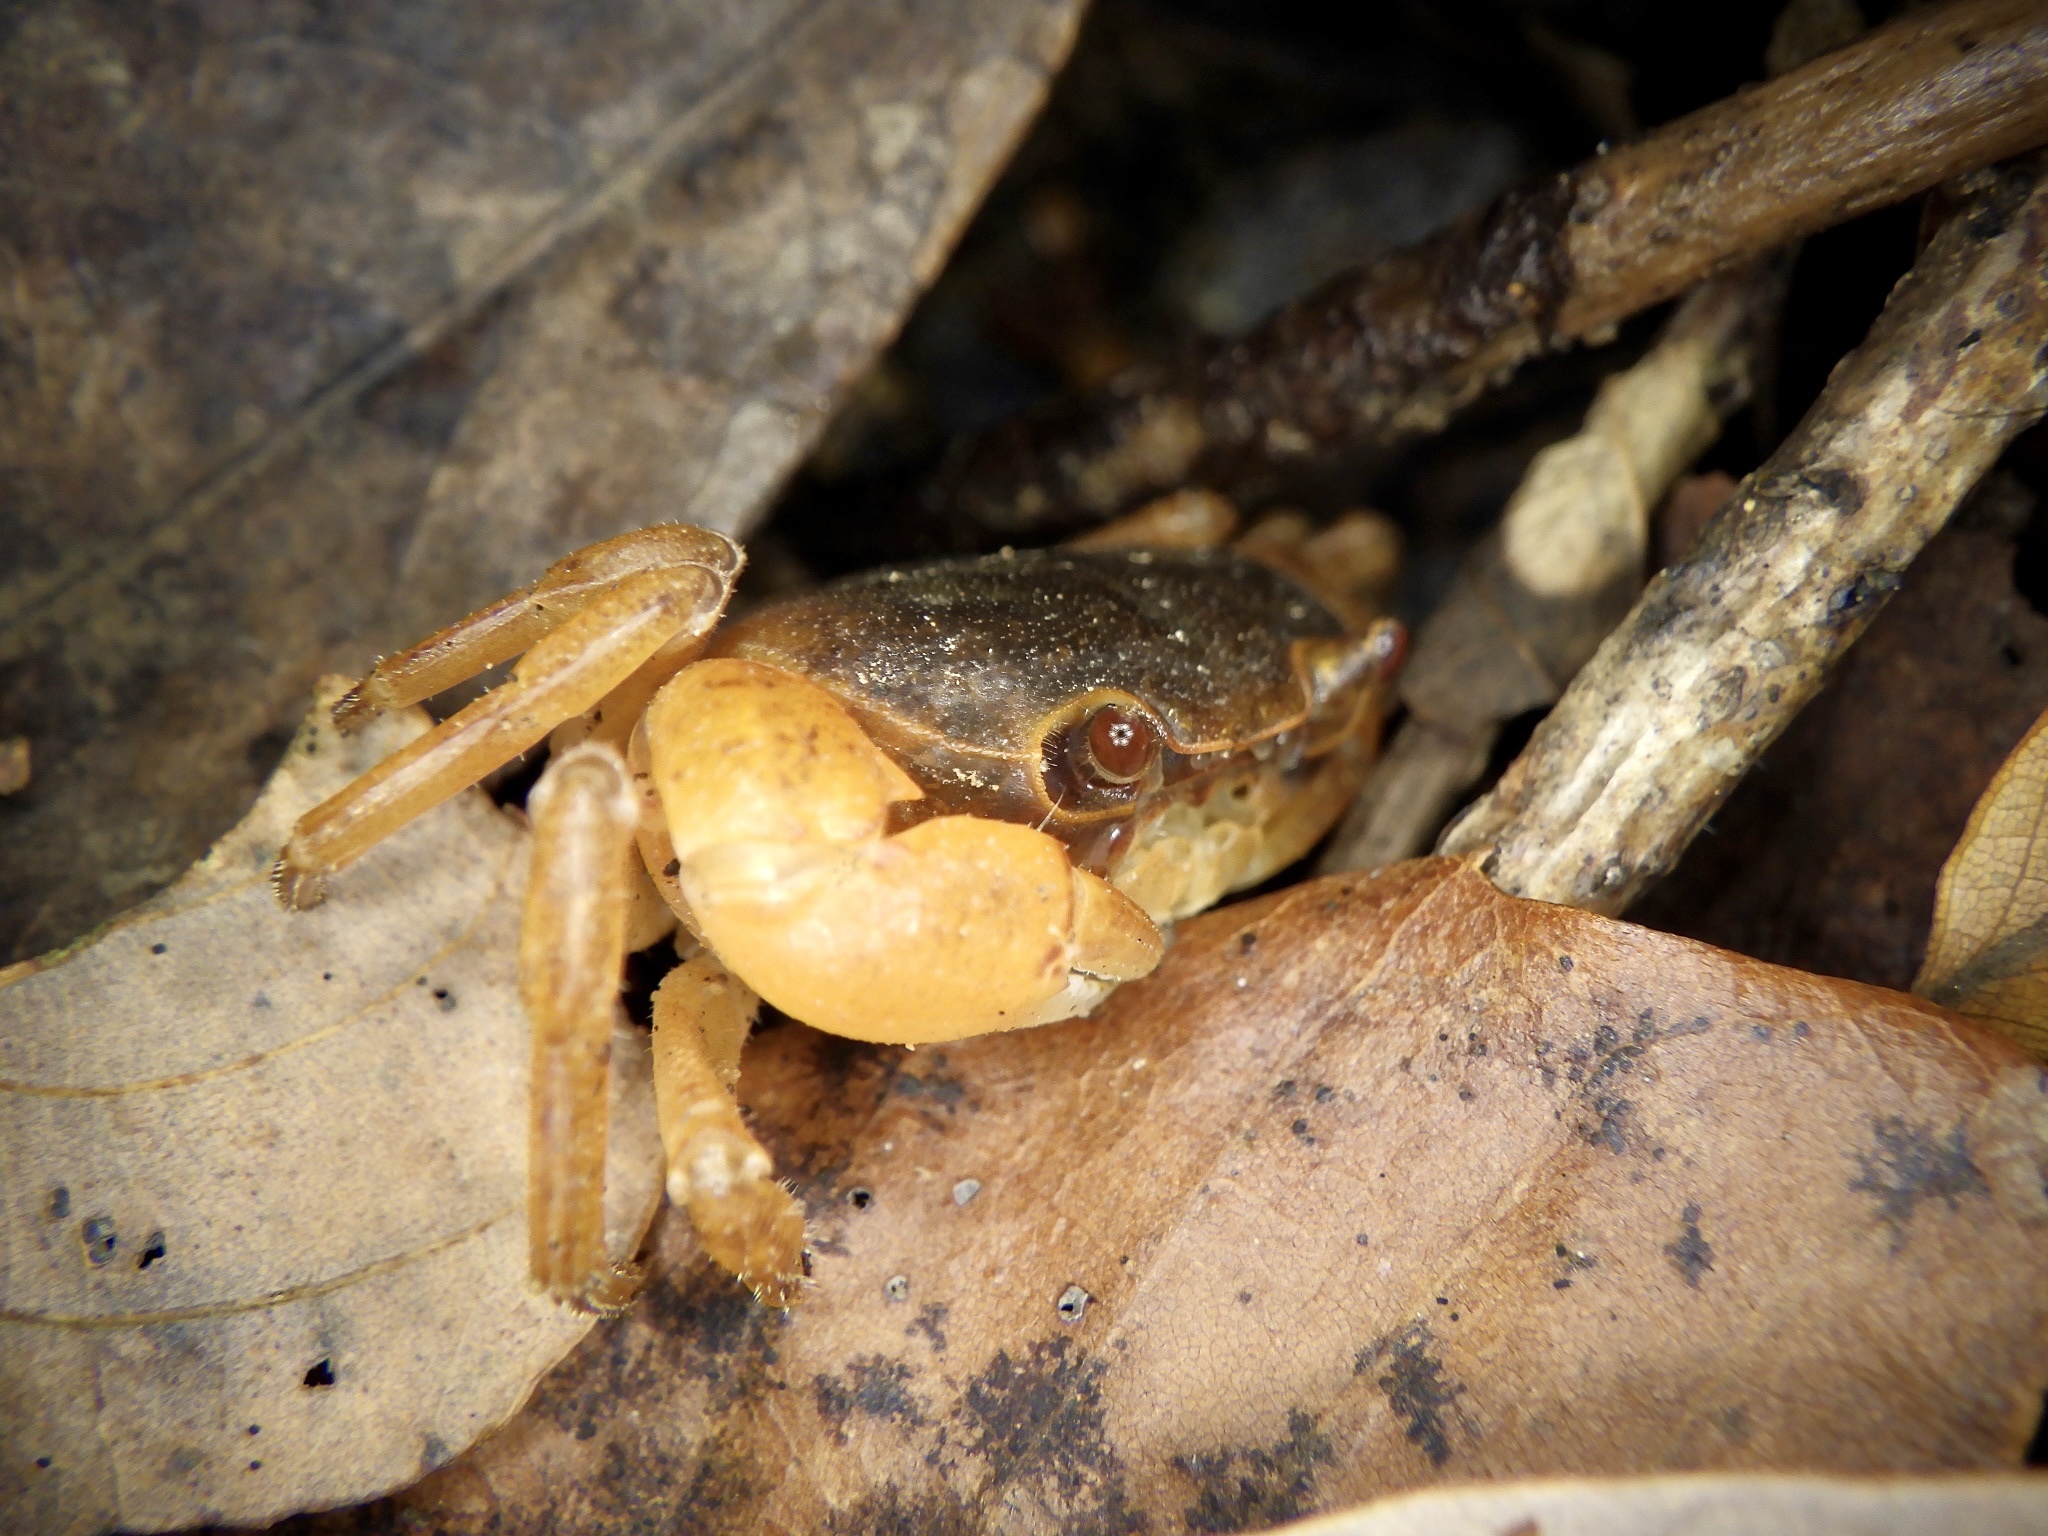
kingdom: Animalia
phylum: Arthropoda
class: Malacostraca
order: Decapoda
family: Potamidae
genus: Geothelphusa
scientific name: Geothelphusa dehaani
